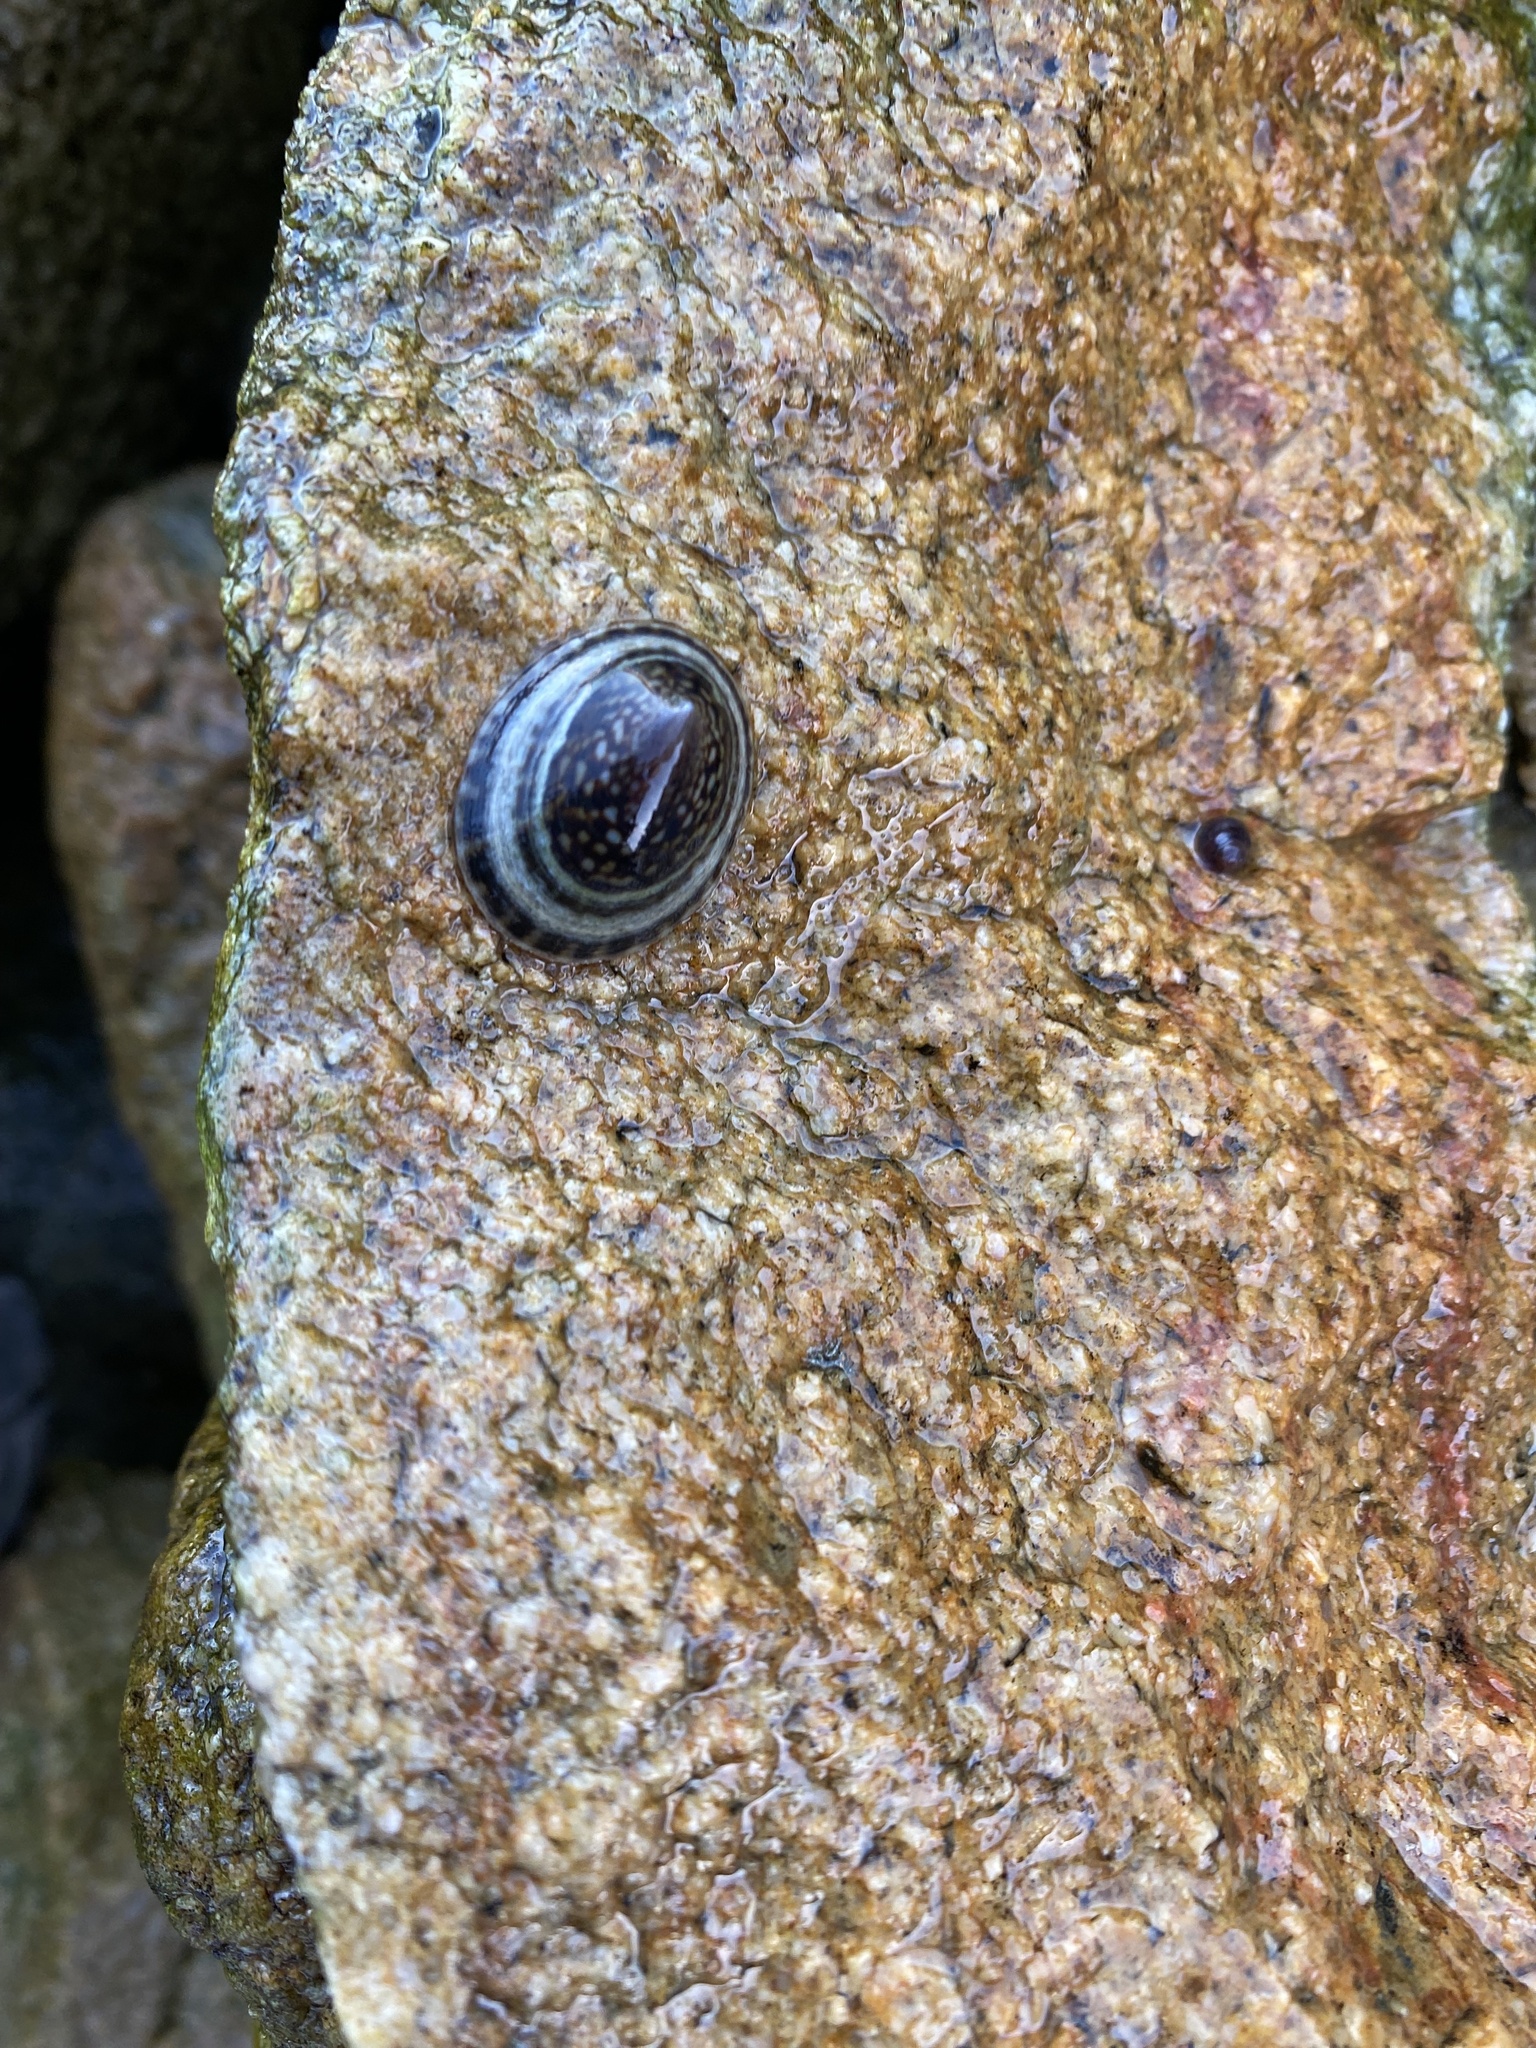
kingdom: Animalia
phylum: Mollusca
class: Gastropoda
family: Lottiidae
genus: Lottia
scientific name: Lottia orbignyi
